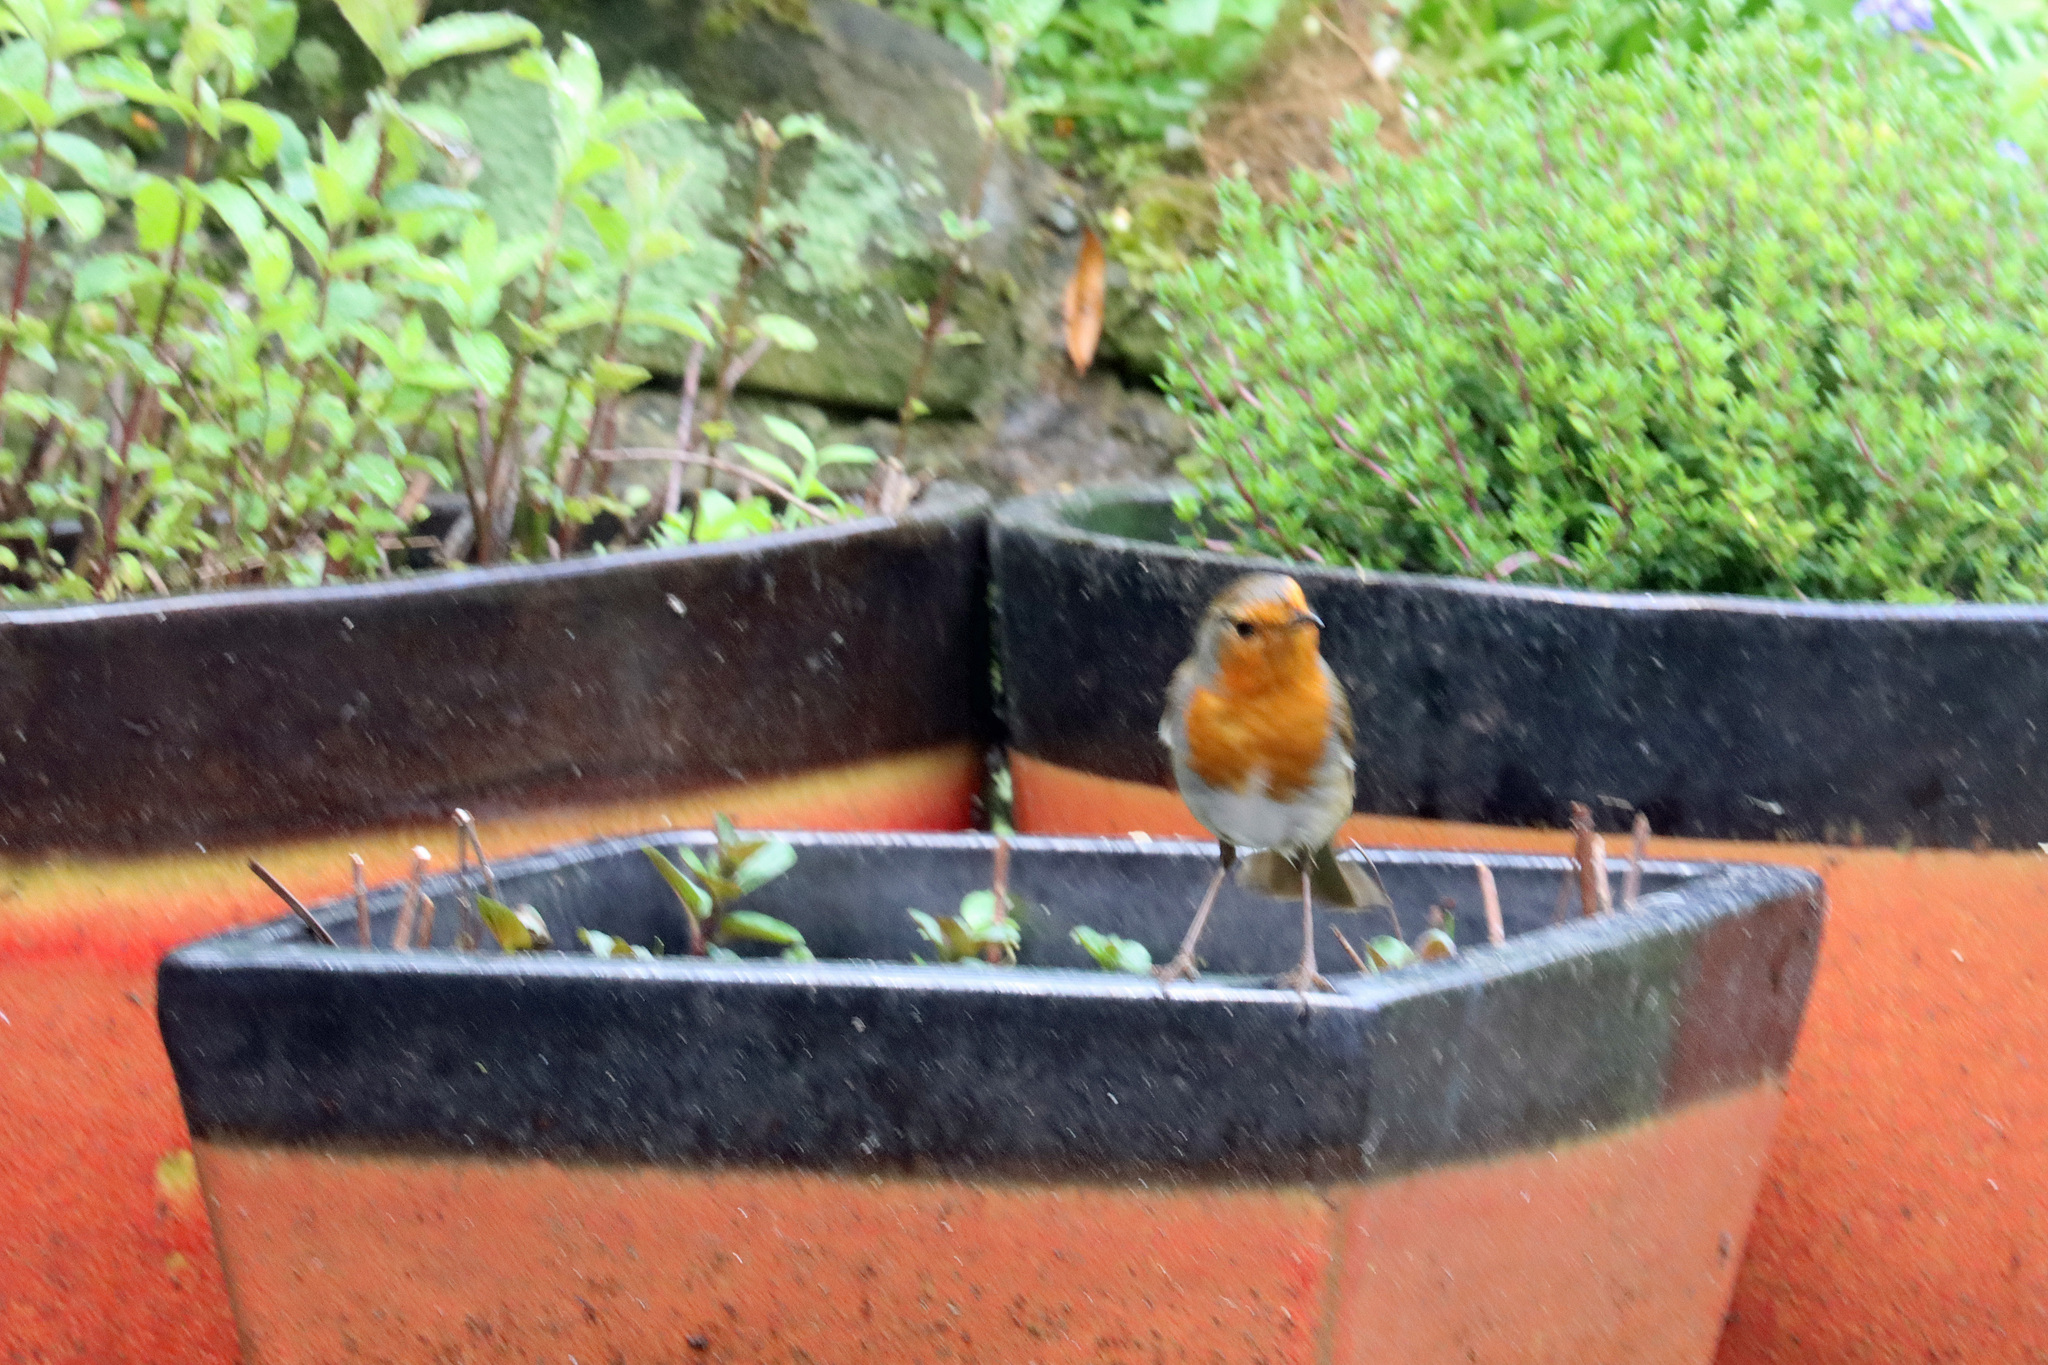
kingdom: Animalia
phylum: Chordata
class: Aves
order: Passeriformes
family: Muscicapidae
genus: Erithacus
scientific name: Erithacus rubecula
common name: European robin
